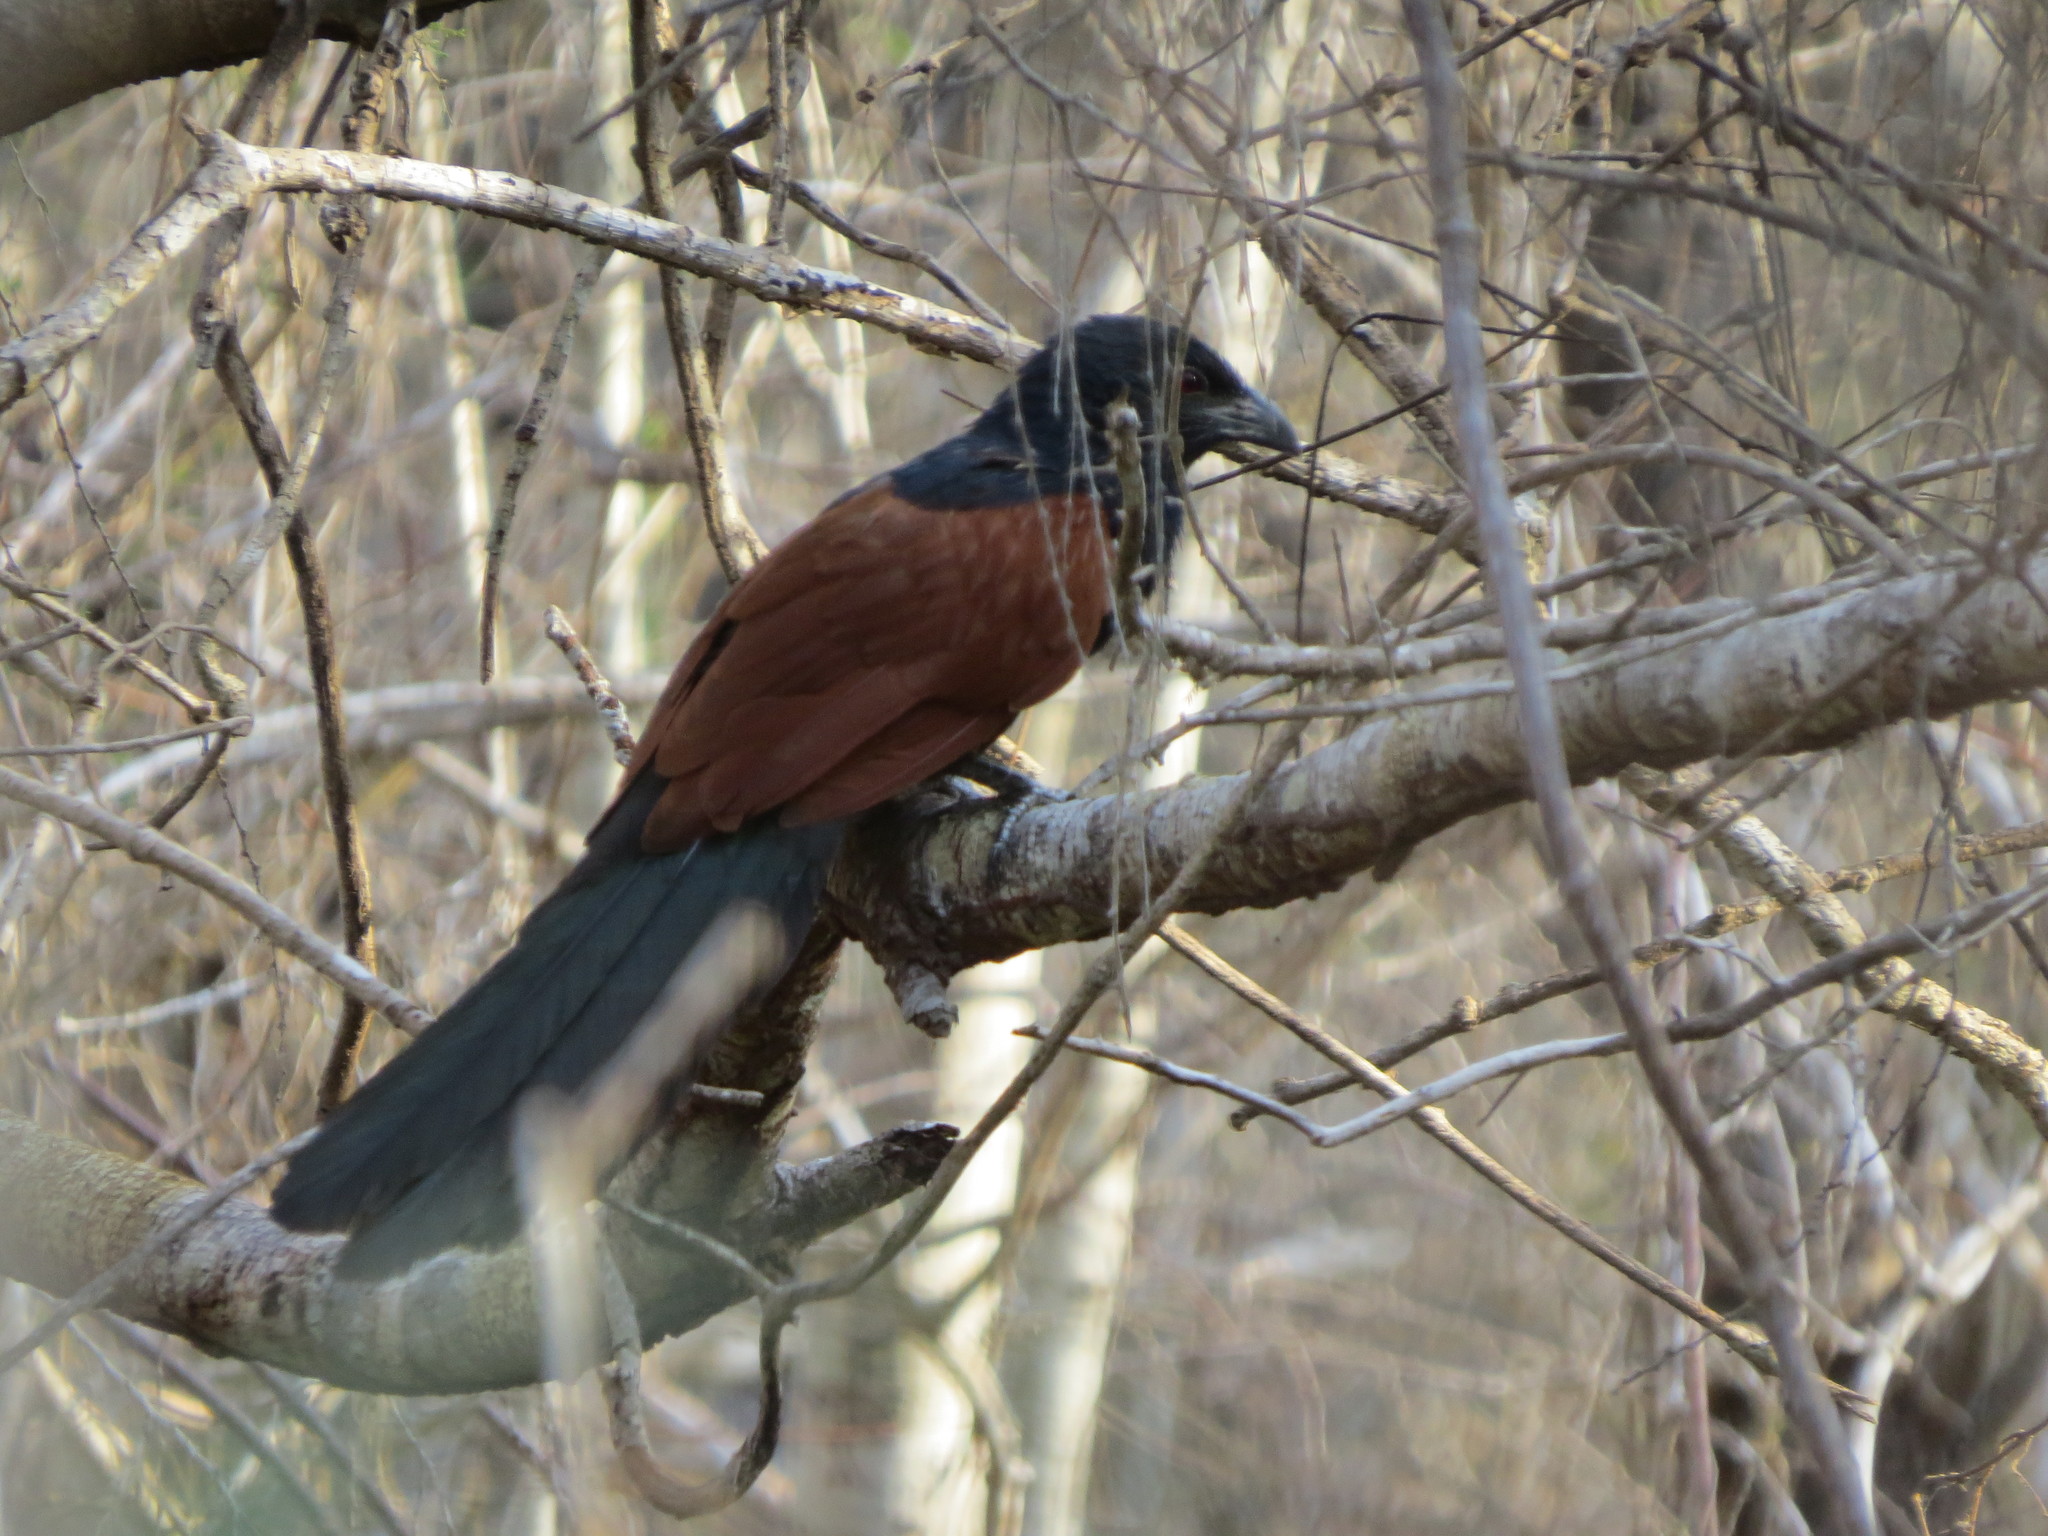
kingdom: Animalia
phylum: Chordata
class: Aves
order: Cuculiformes
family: Cuculidae
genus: Centropus
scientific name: Centropus toulou
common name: Malagasy coucal
